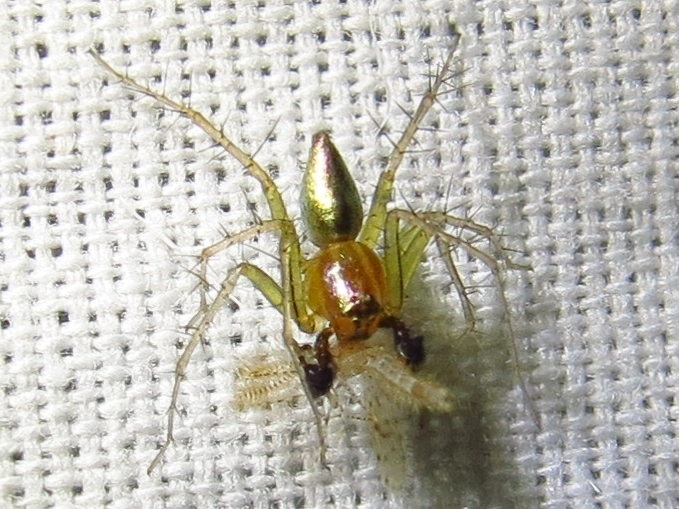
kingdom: Animalia
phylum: Arthropoda
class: Arachnida
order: Araneae
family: Oxyopidae
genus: Oxyopes
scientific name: Oxyopes salticus
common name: Lynx spiders
